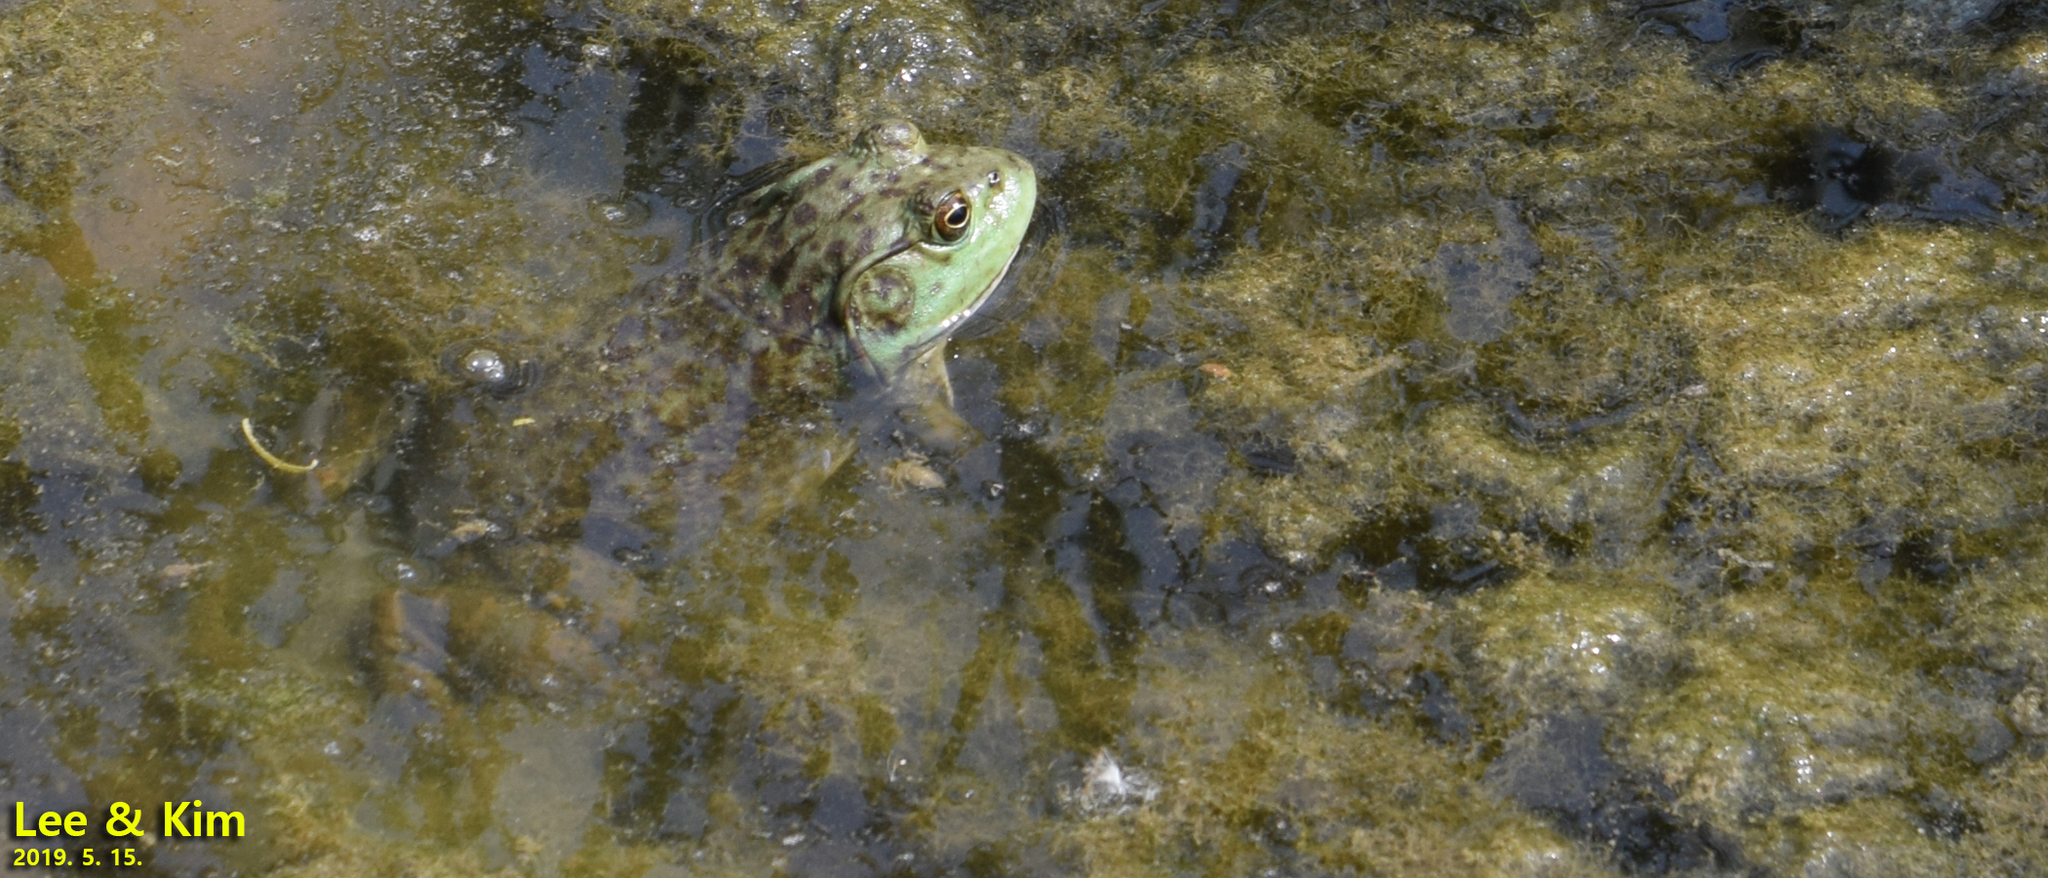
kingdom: Animalia
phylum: Chordata
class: Amphibia
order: Anura
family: Ranidae
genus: Lithobates
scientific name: Lithobates catesbeianus
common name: American bullfrog
